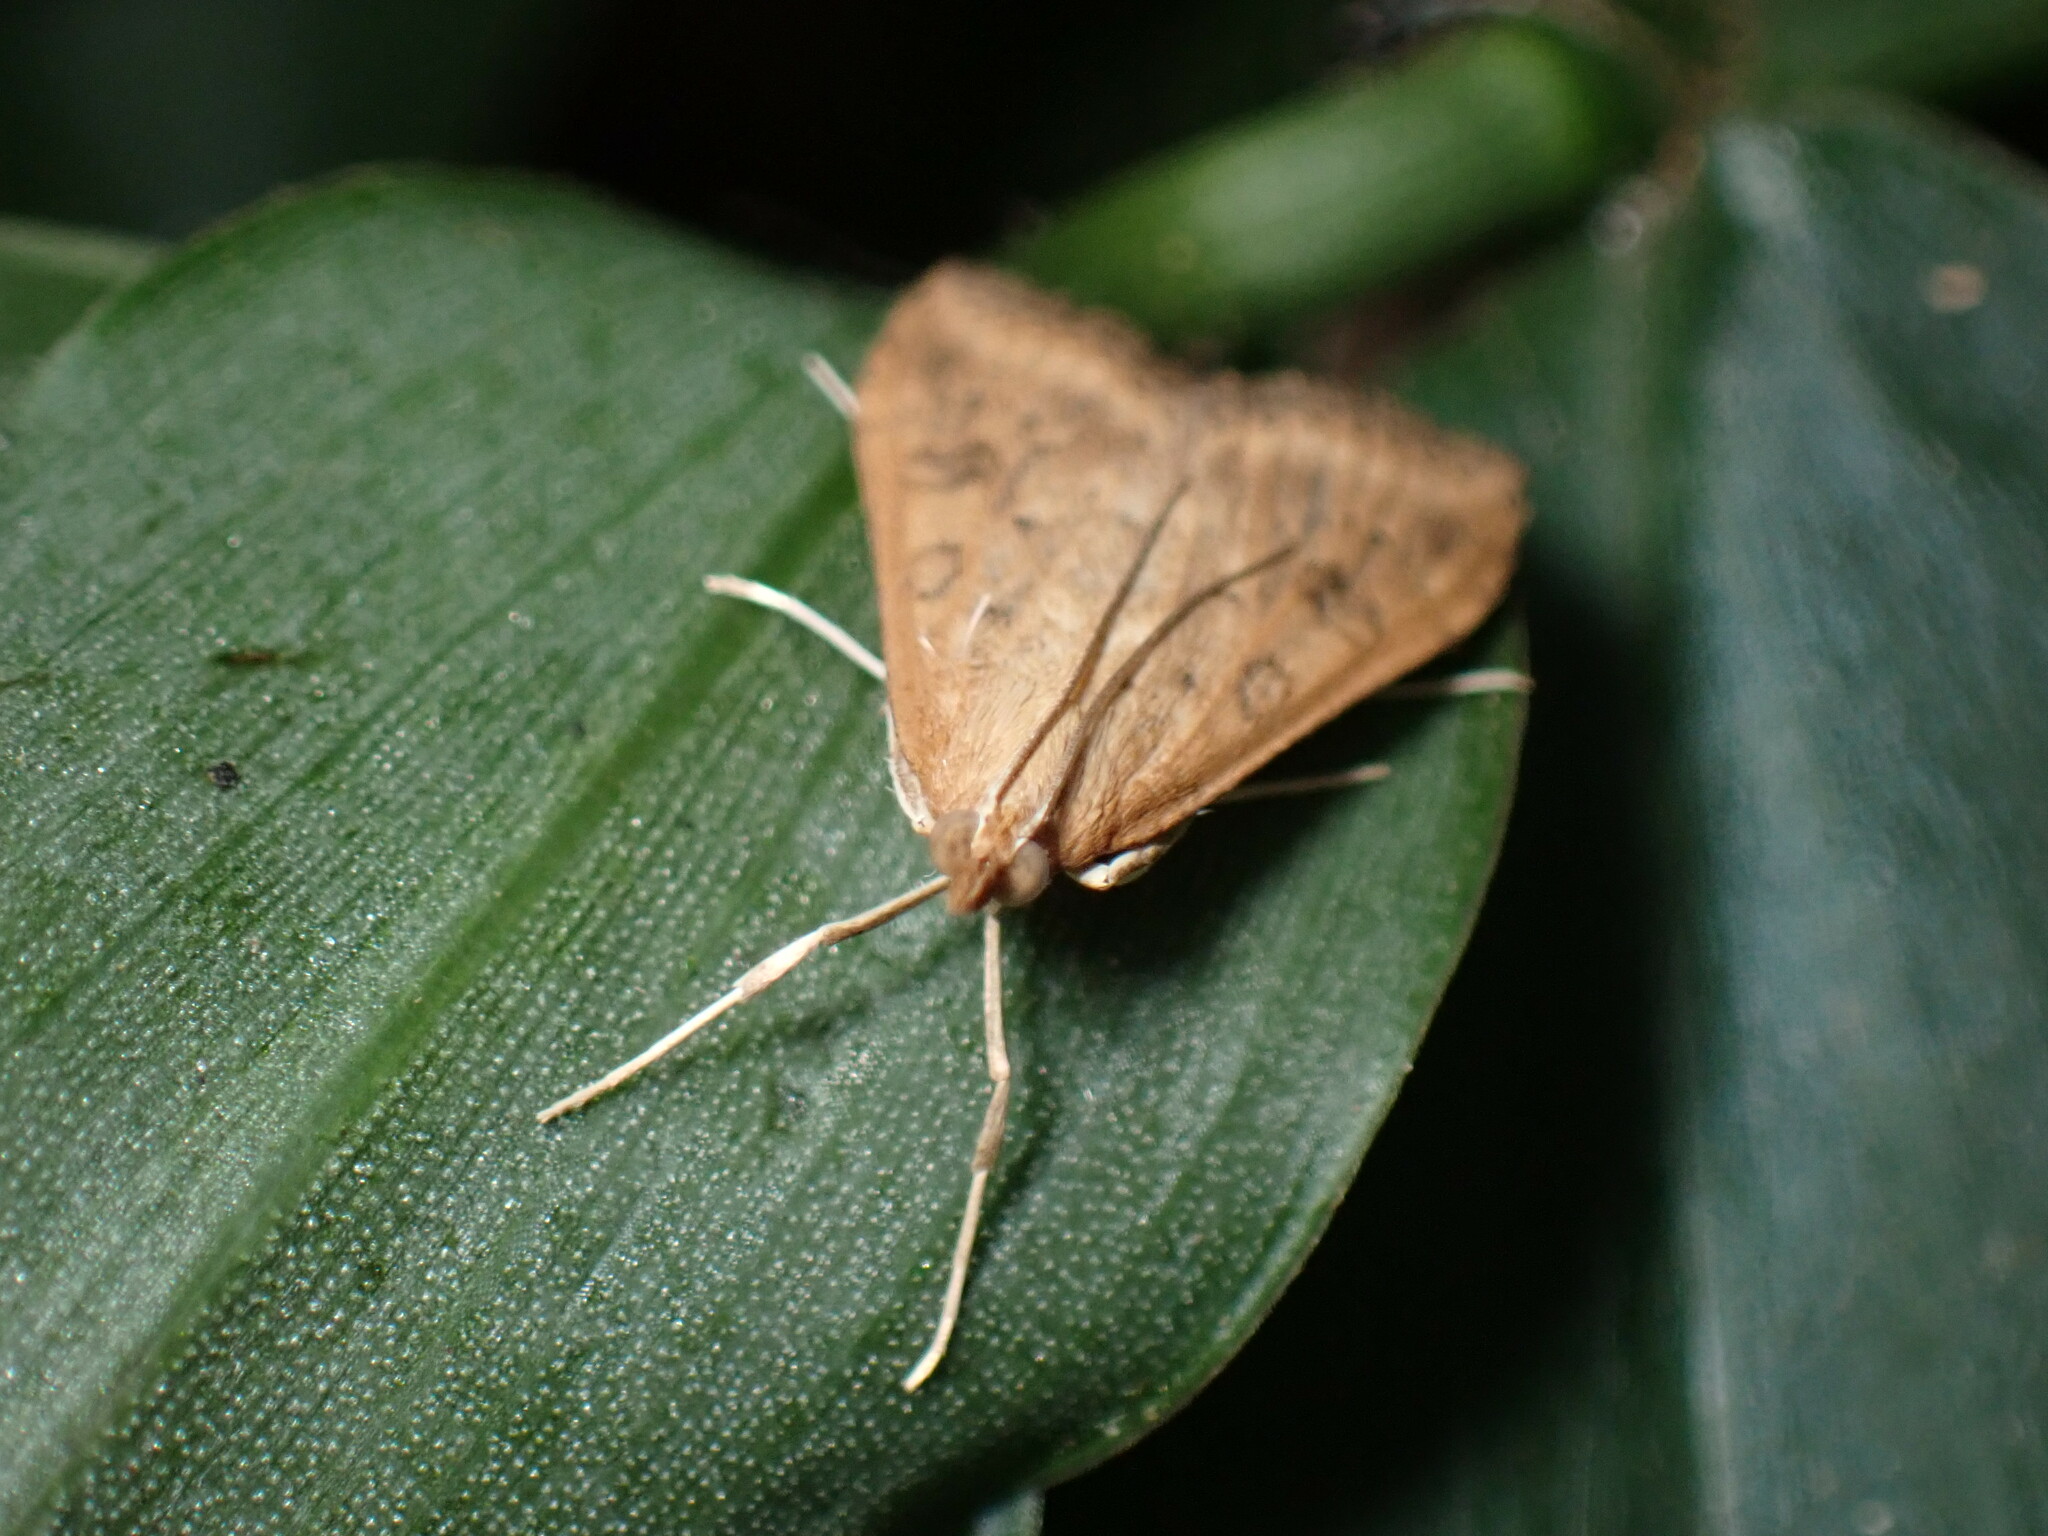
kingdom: Animalia
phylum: Arthropoda
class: Insecta
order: Lepidoptera
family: Crambidae
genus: Udea
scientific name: Udea ferrugalis
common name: Rusty dot
